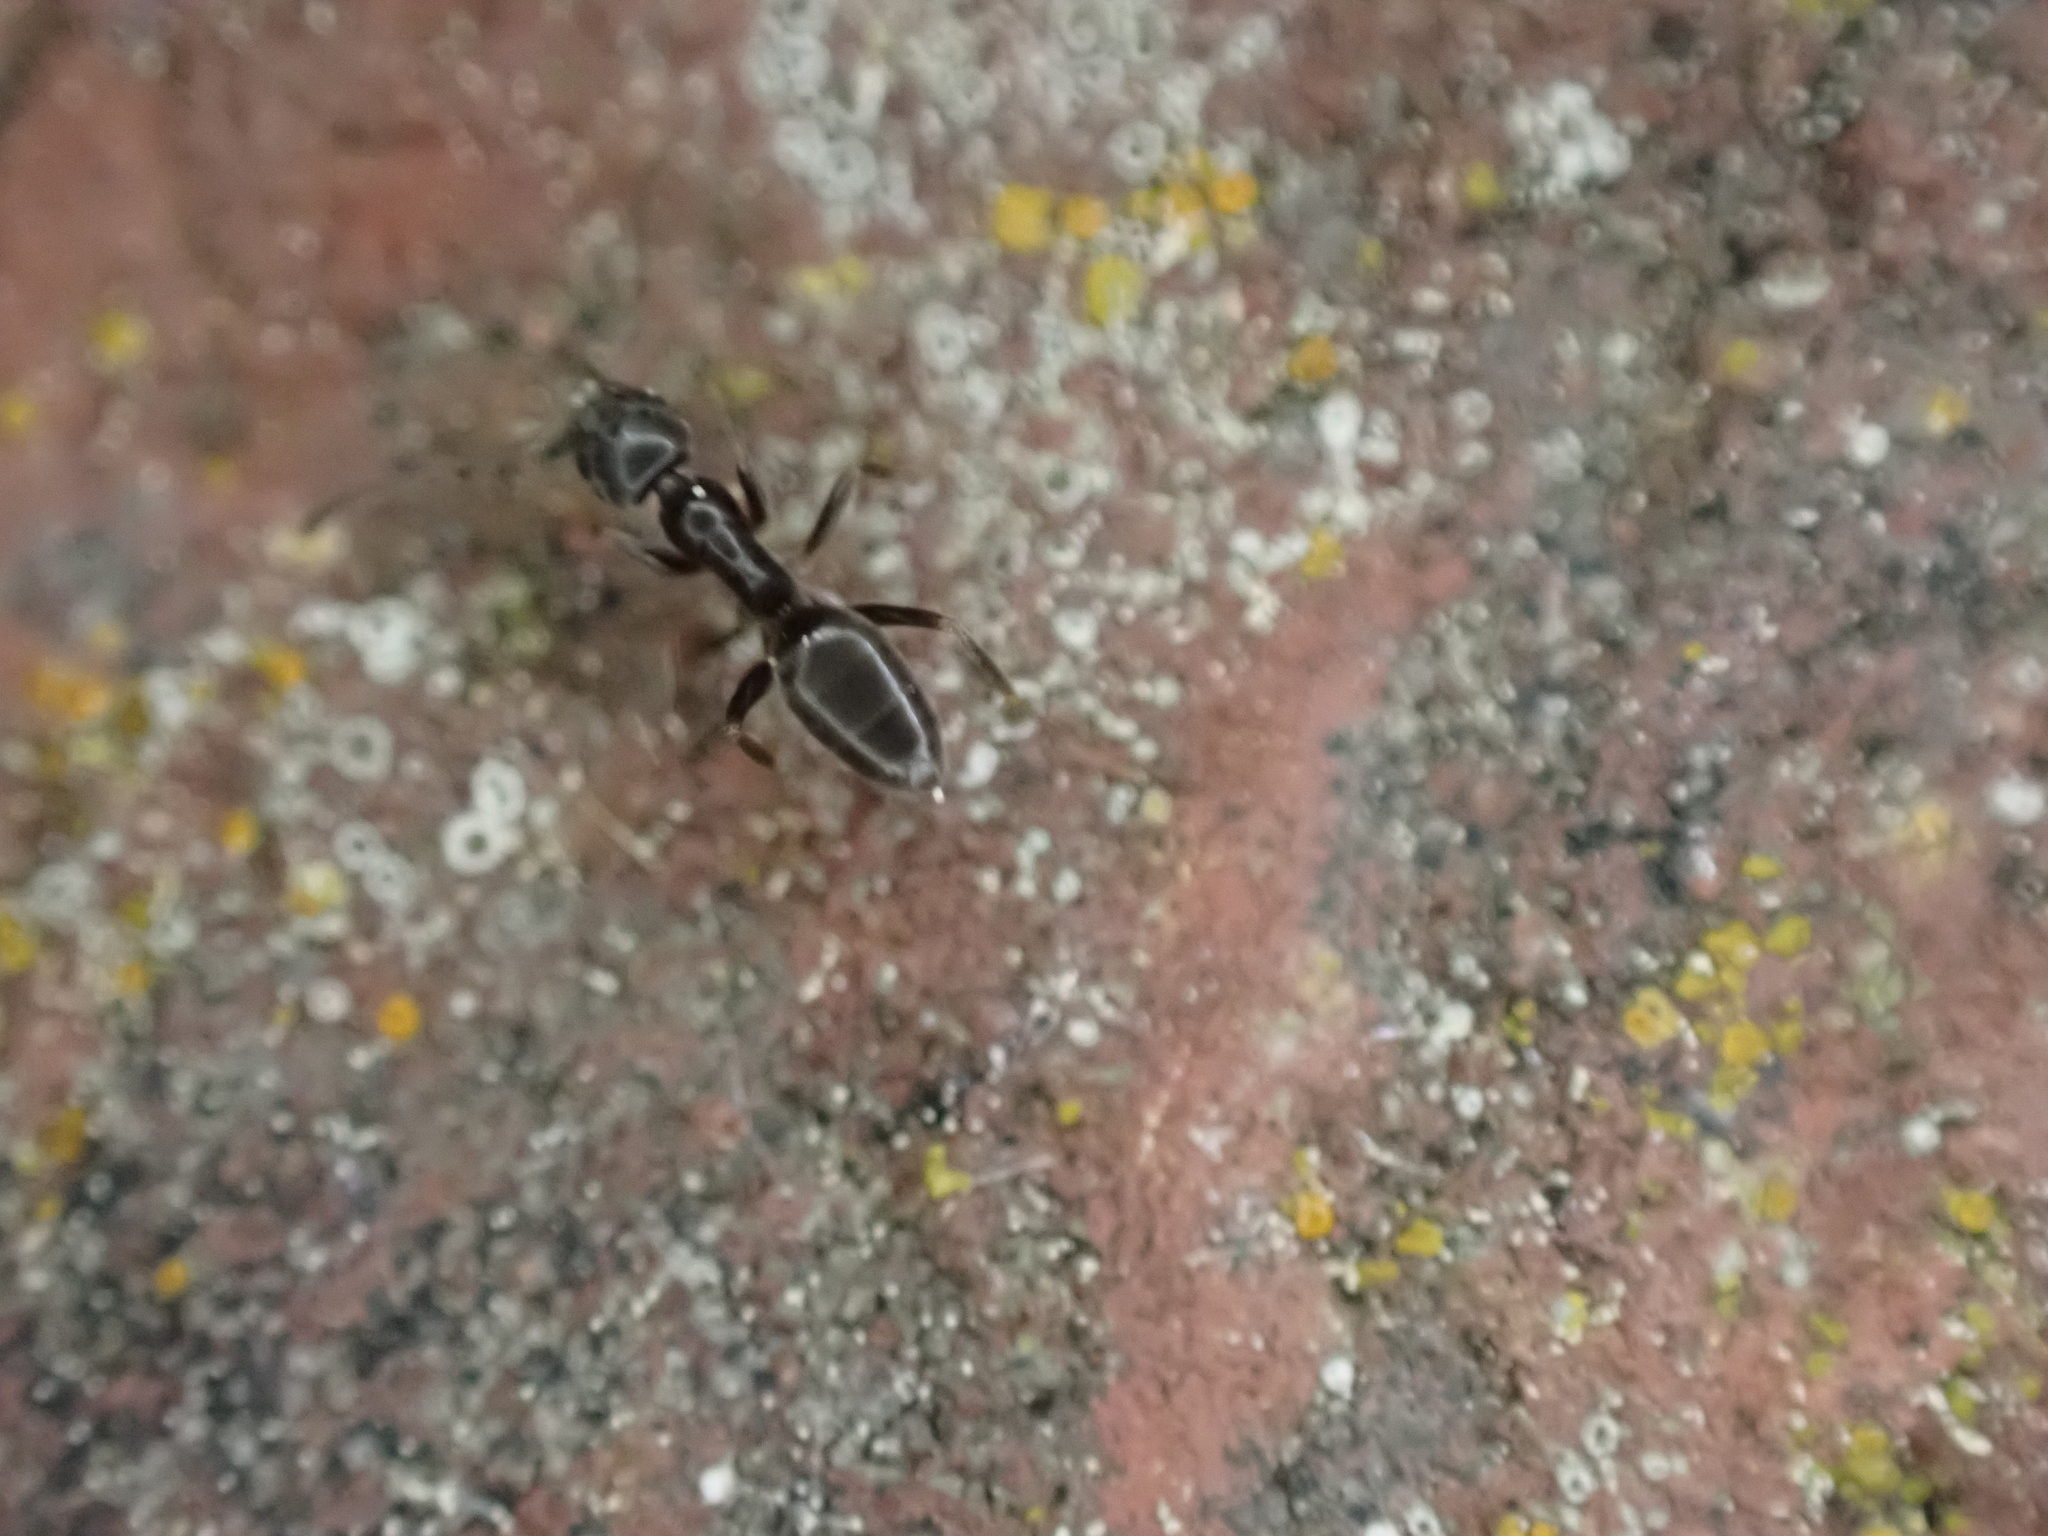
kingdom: Animalia
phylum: Arthropoda
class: Insecta
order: Hymenoptera
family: Formicidae
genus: Tapinoma
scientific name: Tapinoma sessile
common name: Odorous house ant
